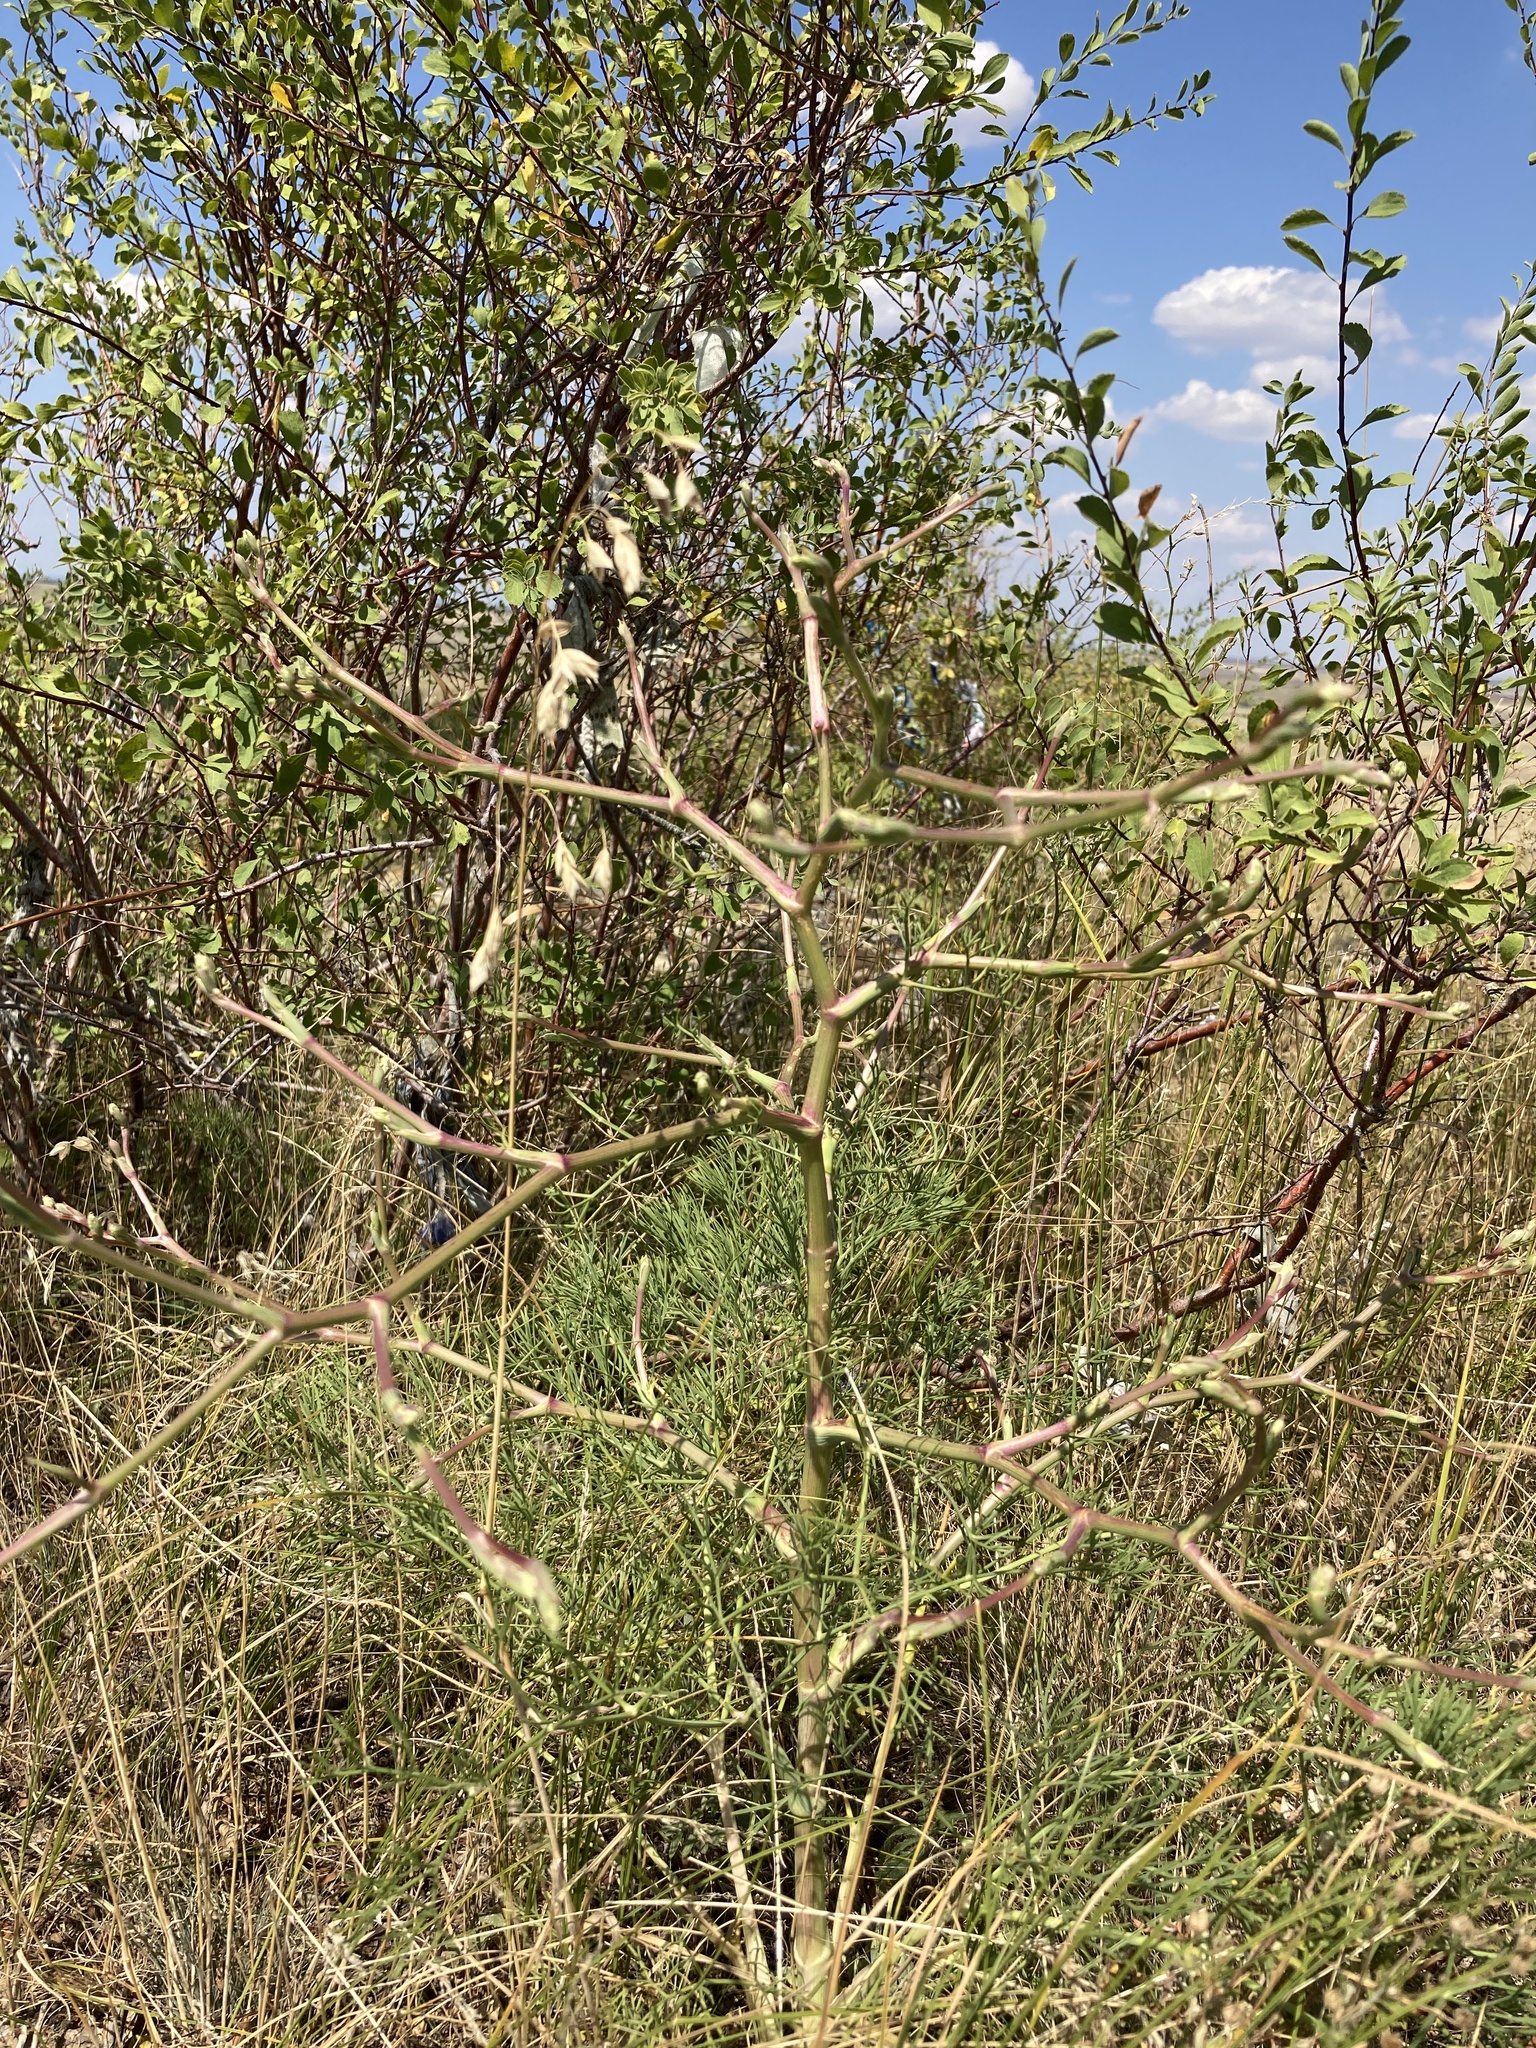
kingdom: Plantae
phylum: Tracheophyta
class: Magnoliopsida
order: Apiales
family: Apiaceae
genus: Seseli
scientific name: Seseli arenarium
